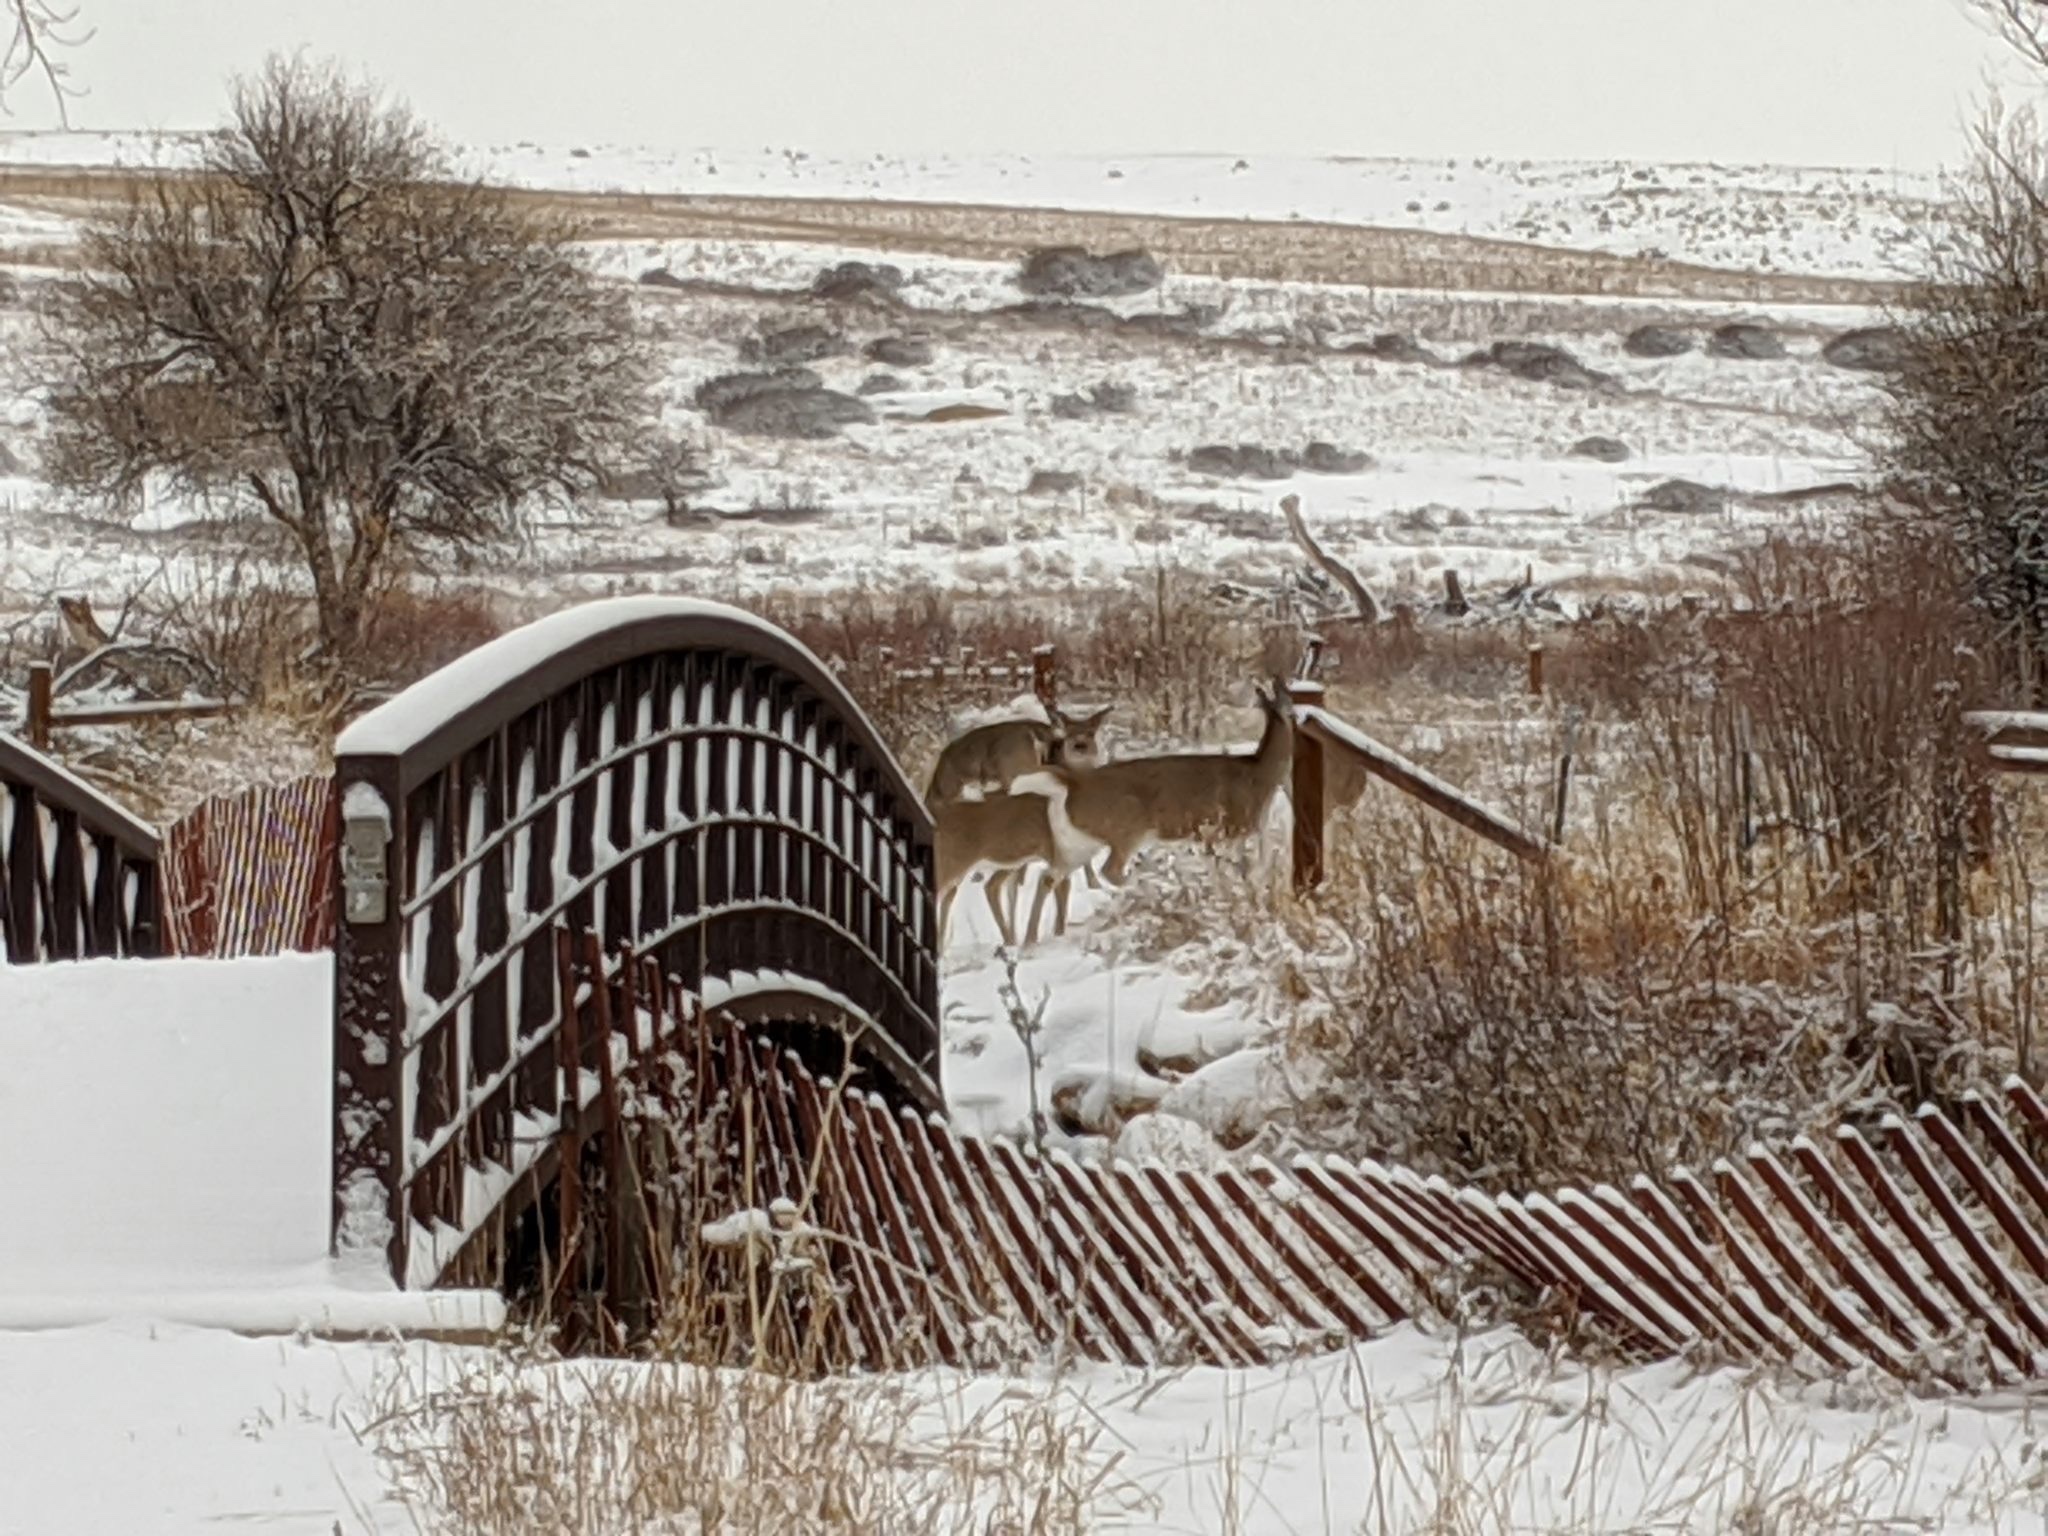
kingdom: Animalia
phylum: Chordata
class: Mammalia
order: Artiodactyla
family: Cervidae
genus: Odocoileus
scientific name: Odocoileus virginianus
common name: White-tailed deer
